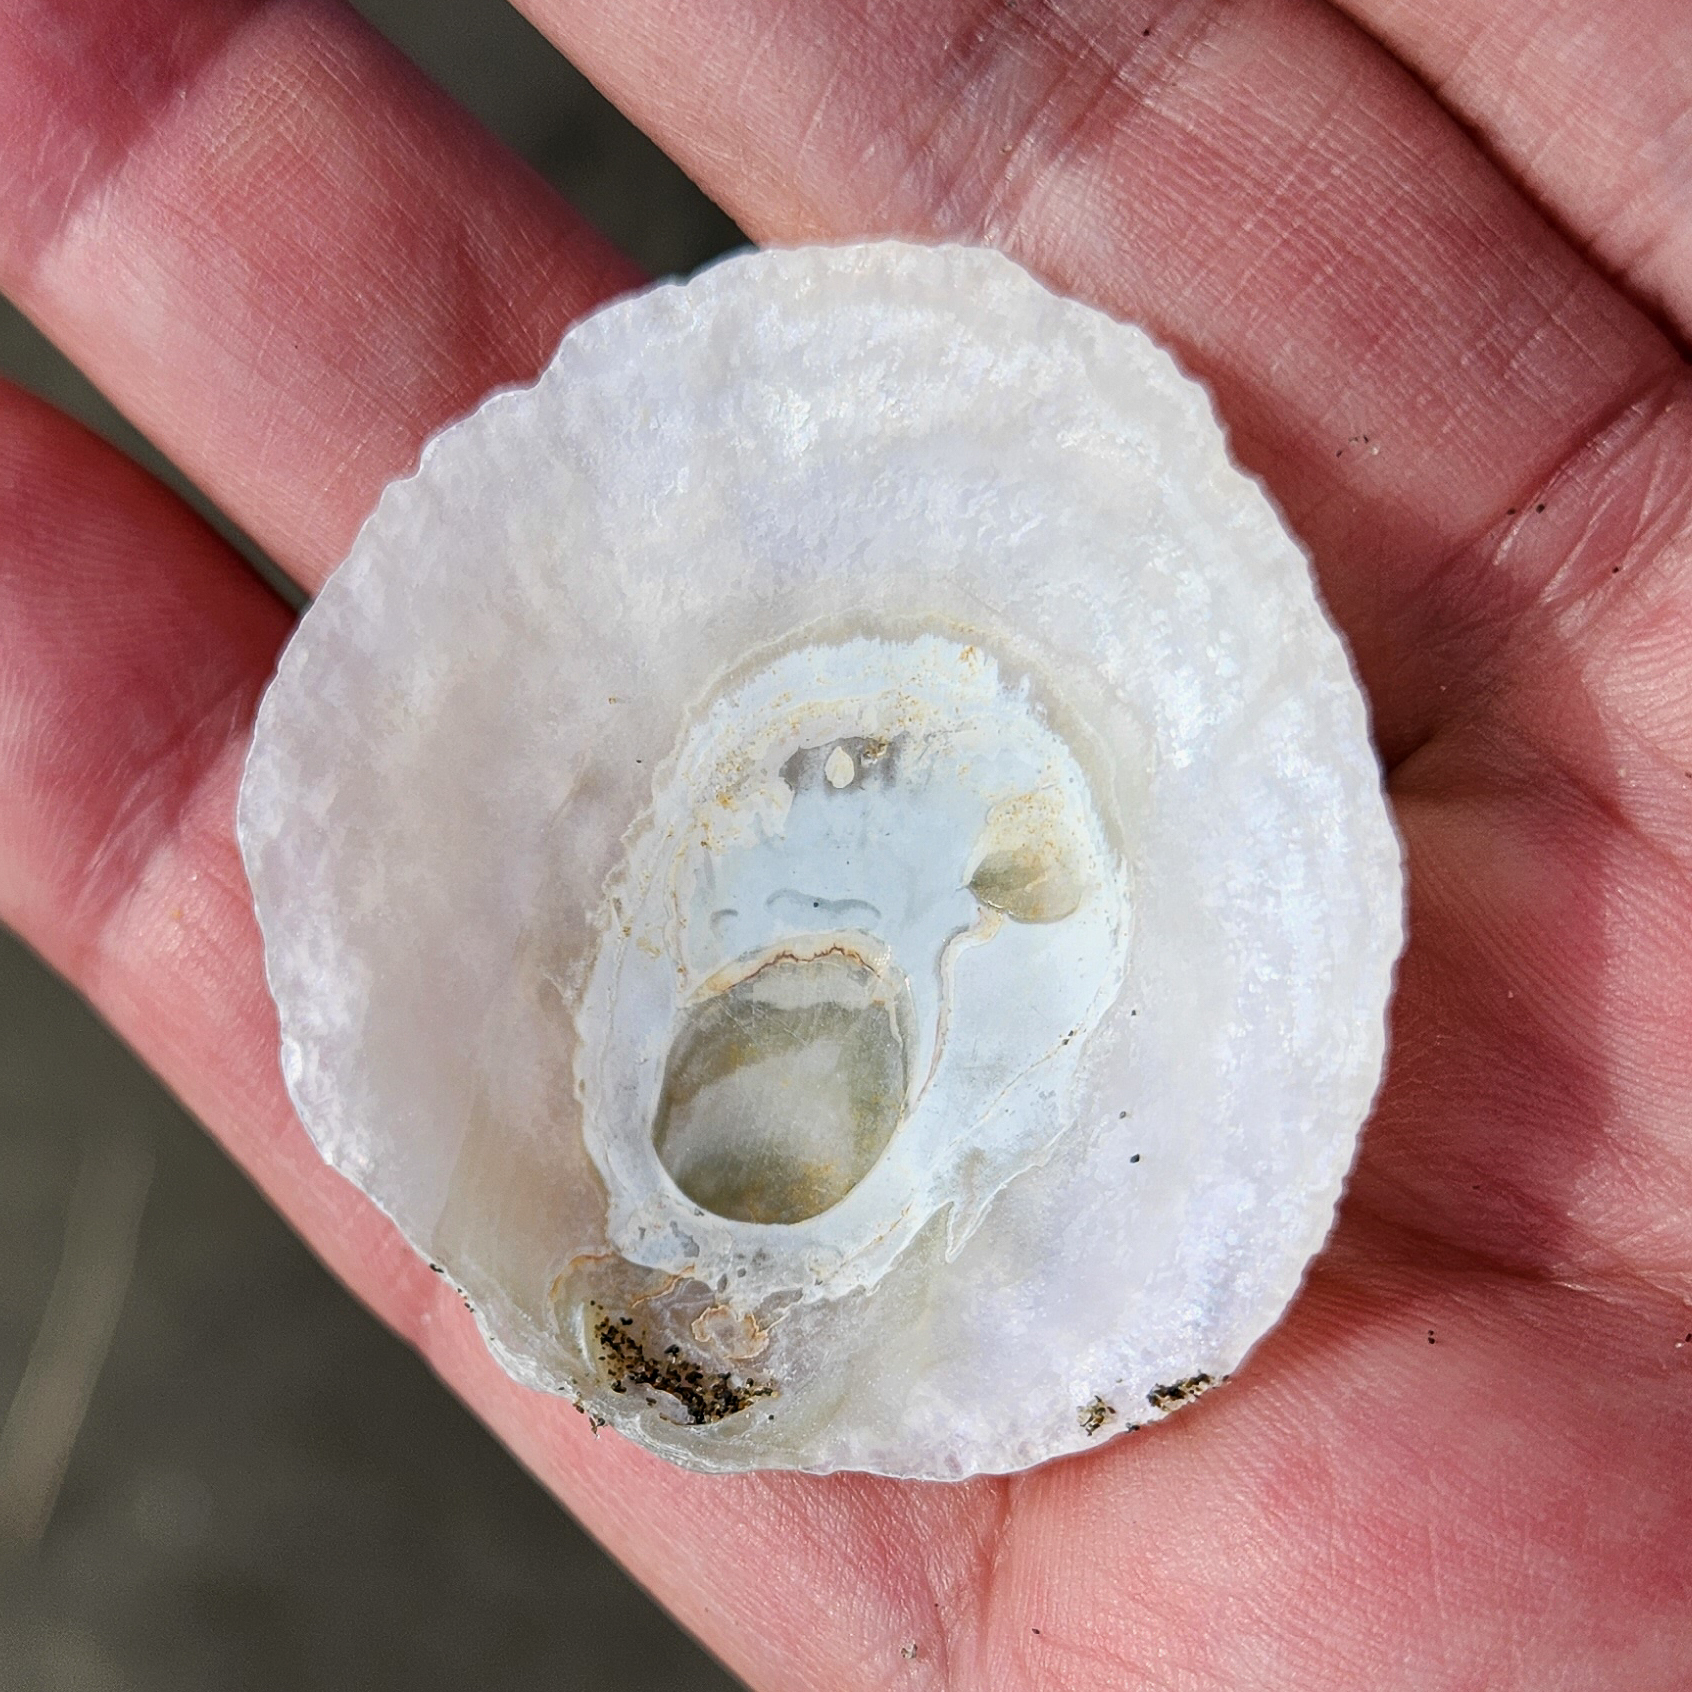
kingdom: Animalia
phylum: Mollusca
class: Bivalvia
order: Pectinida
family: Anomiidae
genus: Pododesmus
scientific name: Pododesmus macrochisma
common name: Alaska jingle
